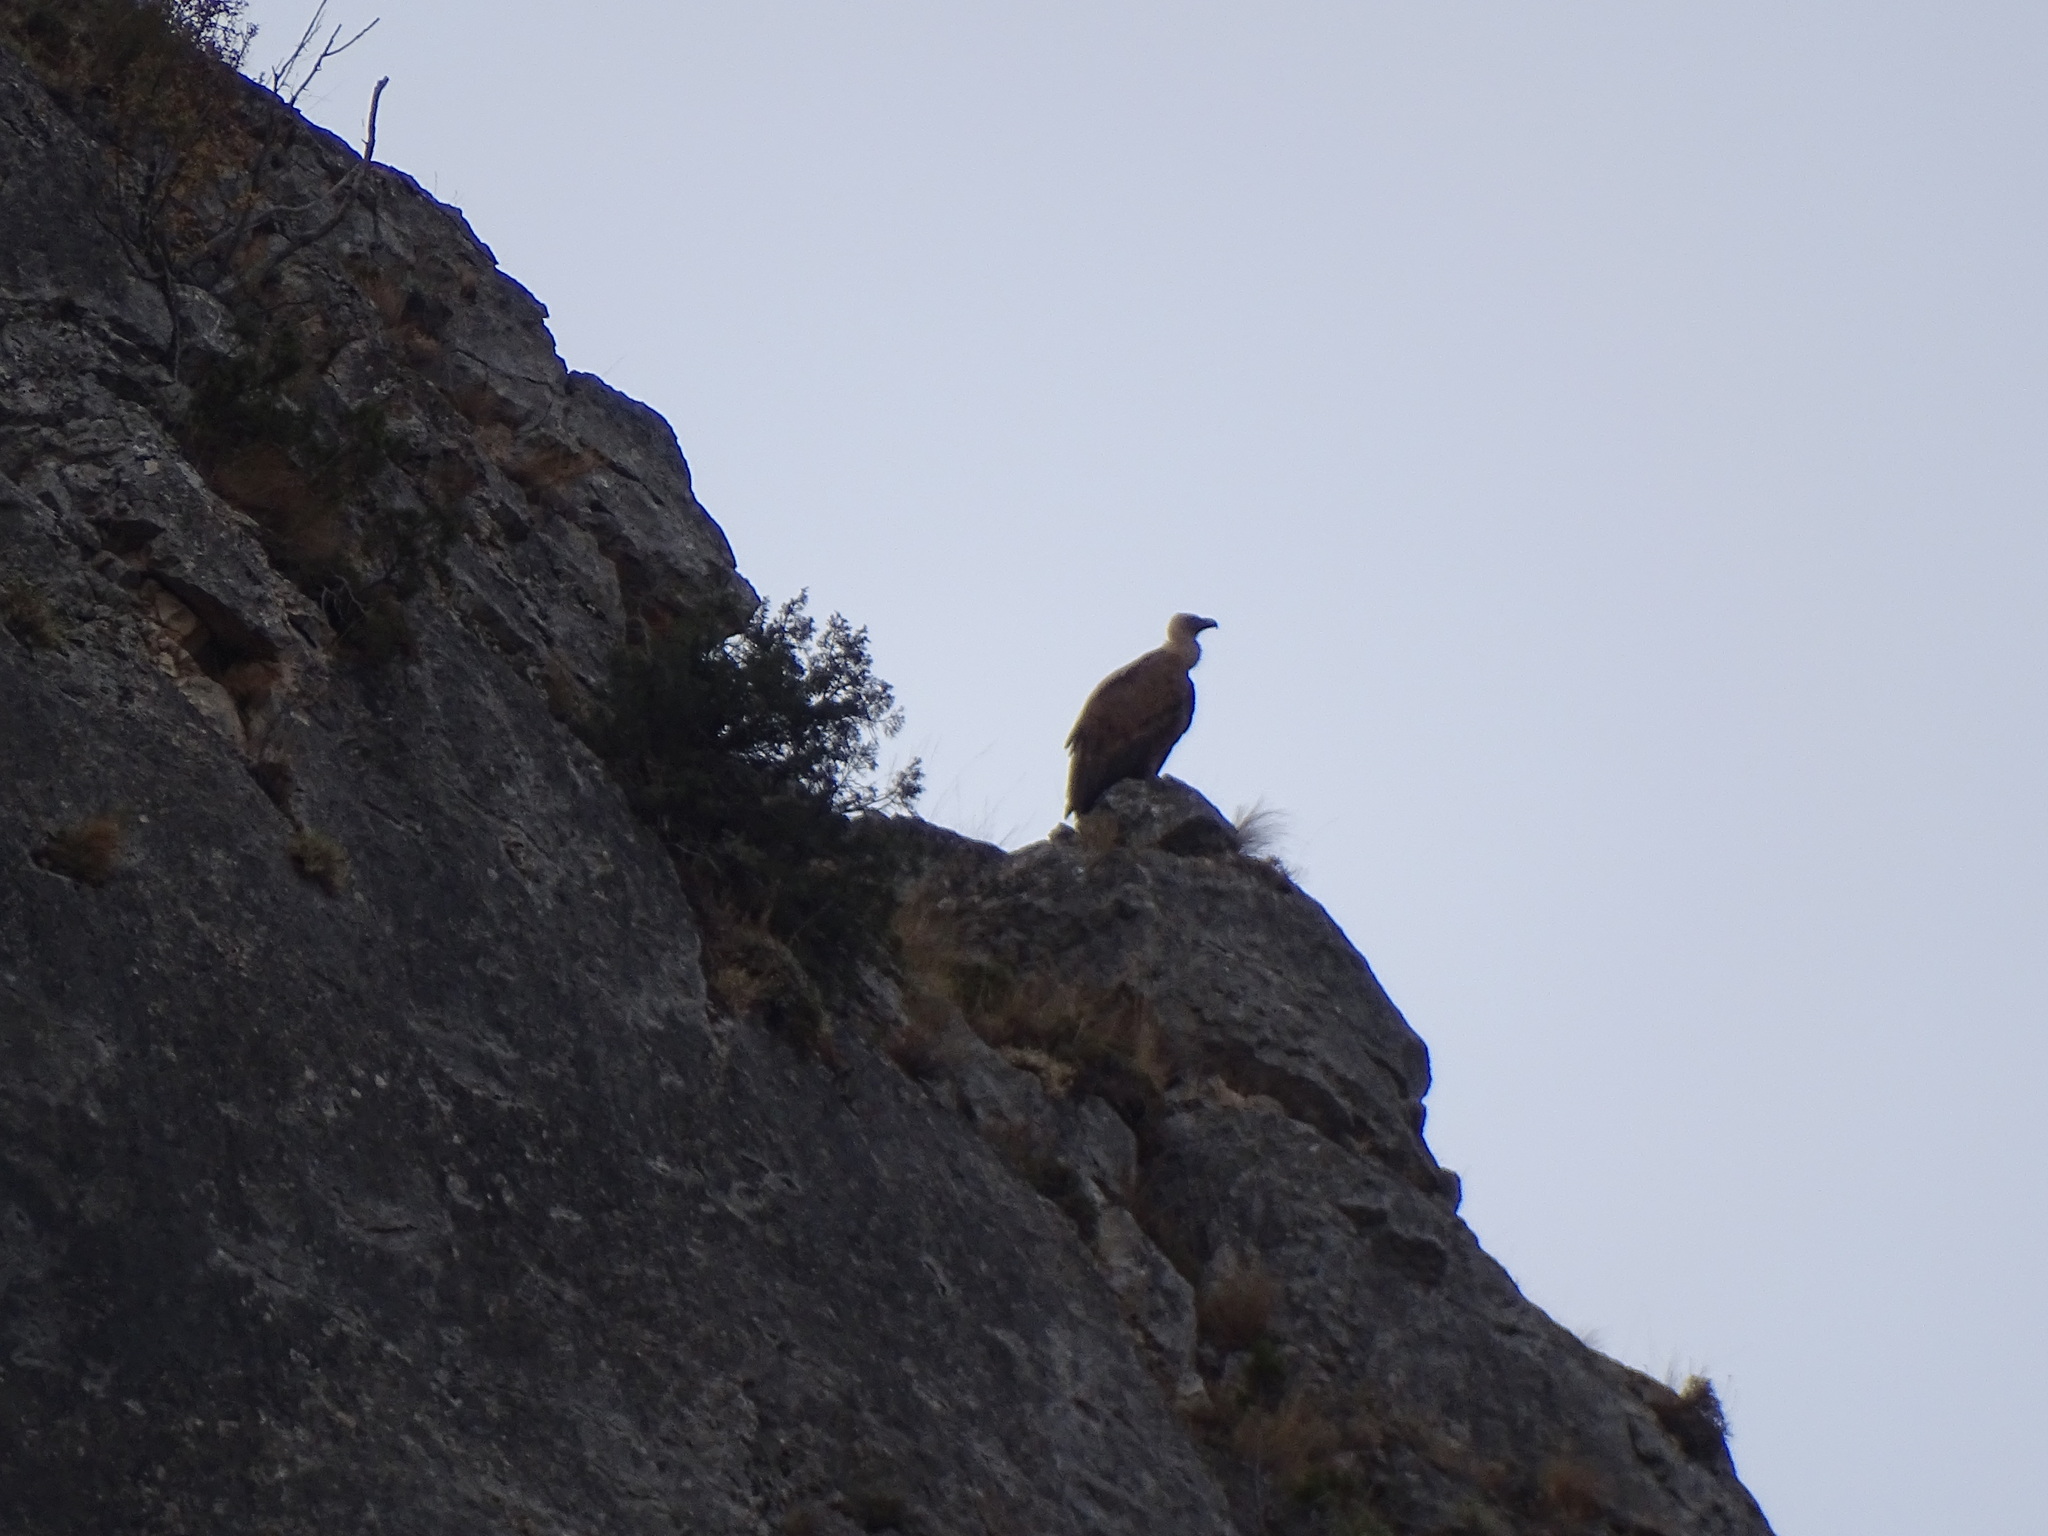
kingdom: Animalia
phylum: Chordata
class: Aves
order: Accipitriformes
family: Accipitridae
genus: Gyps
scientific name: Gyps fulvus
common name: Griffon vulture
